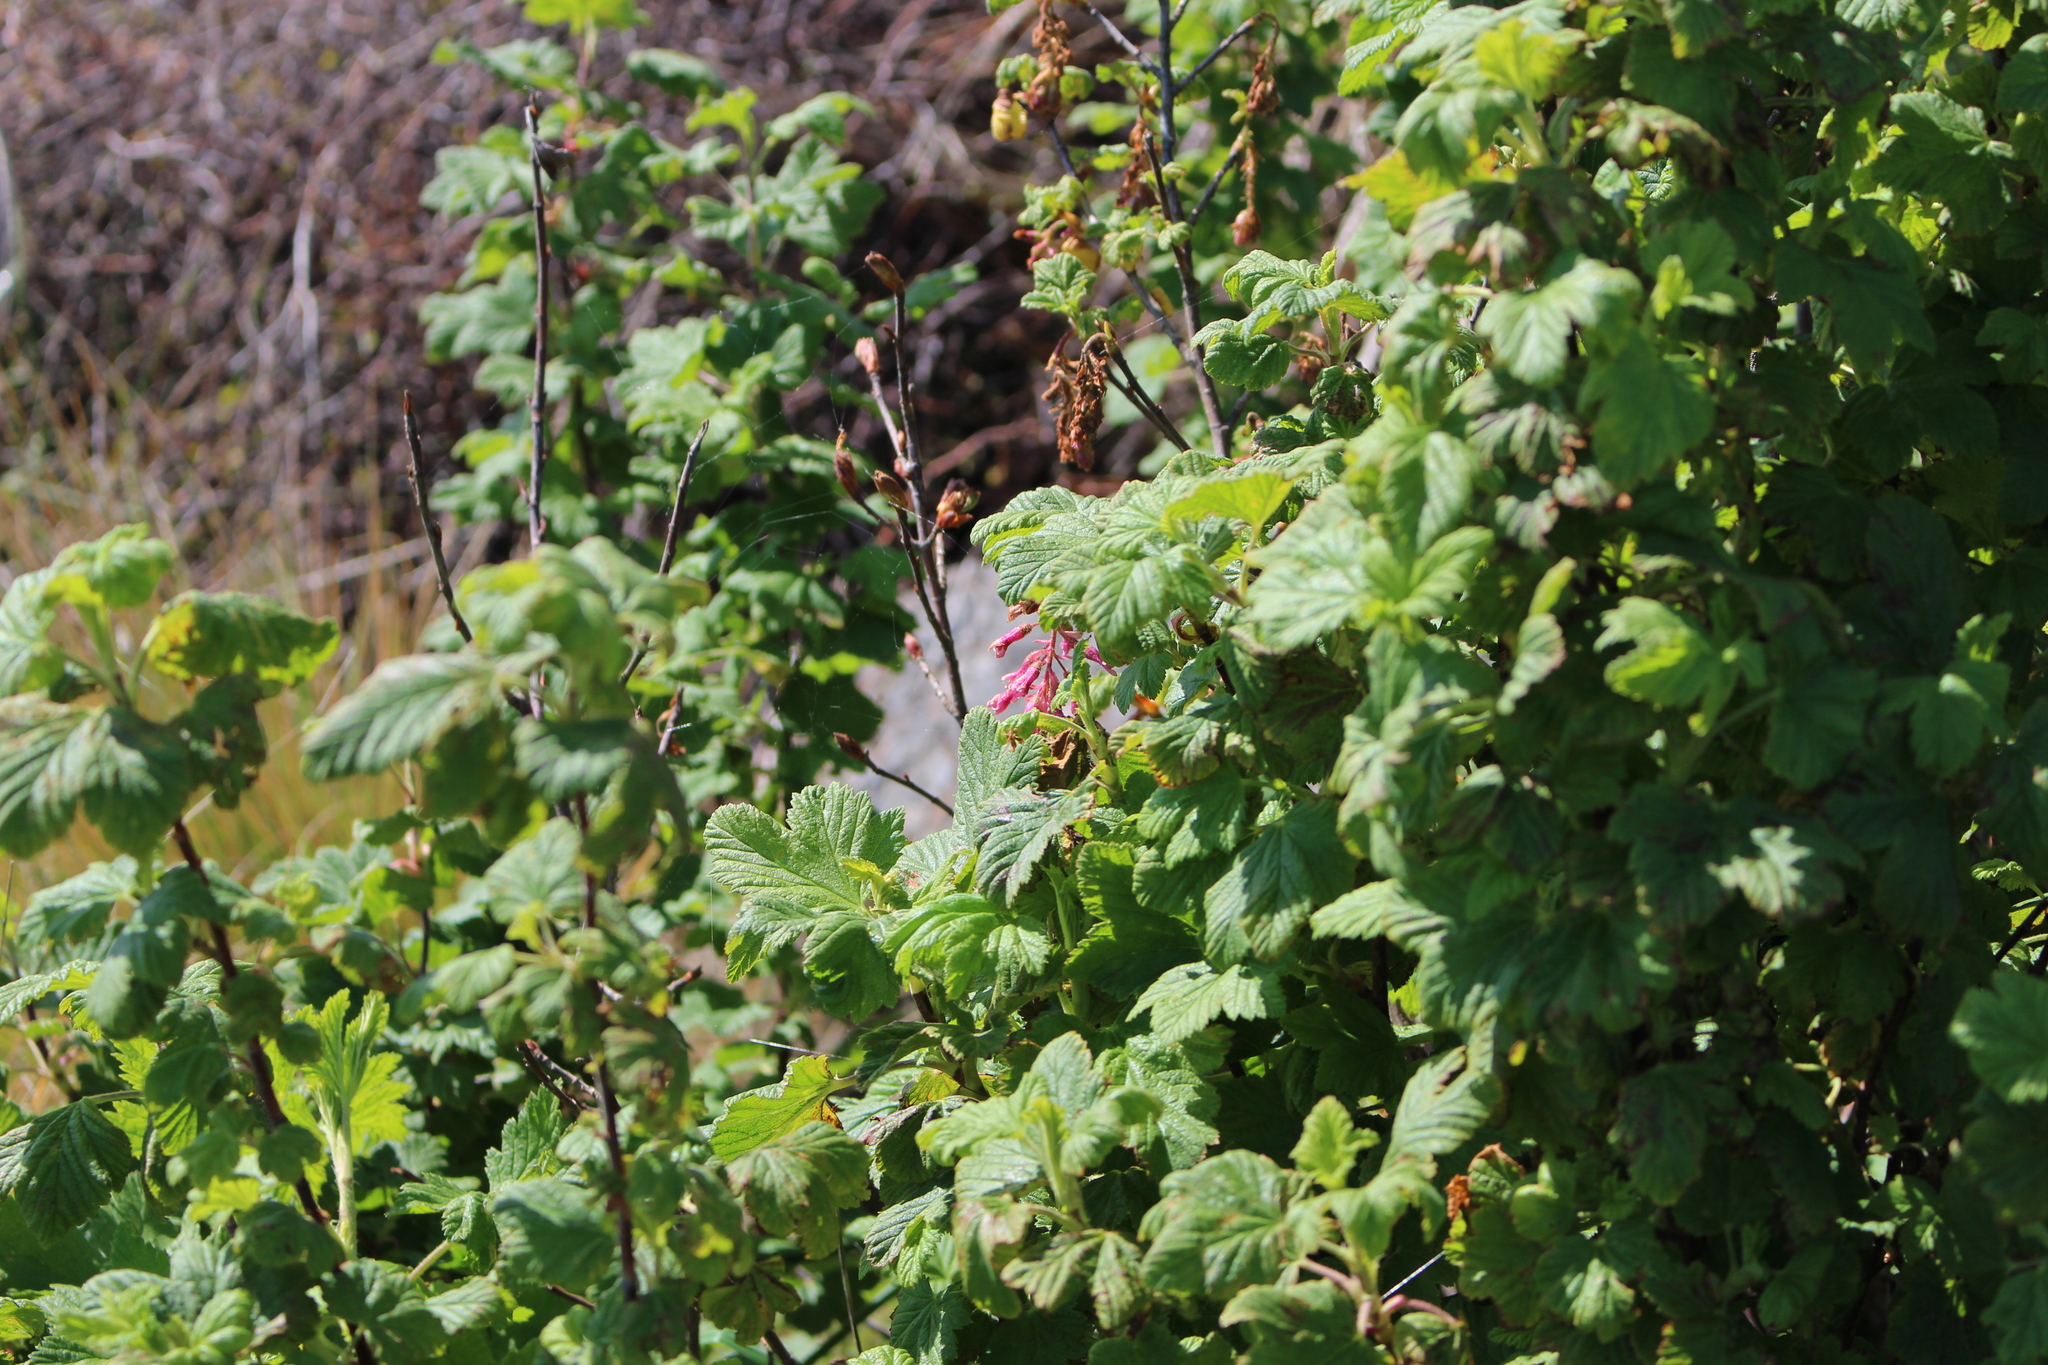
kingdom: Plantae
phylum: Tracheophyta
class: Magnoliopsida
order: Saxifragales
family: Grossulariaceae
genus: Ribes
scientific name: Ribes sanguineum
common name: Flowering currant
